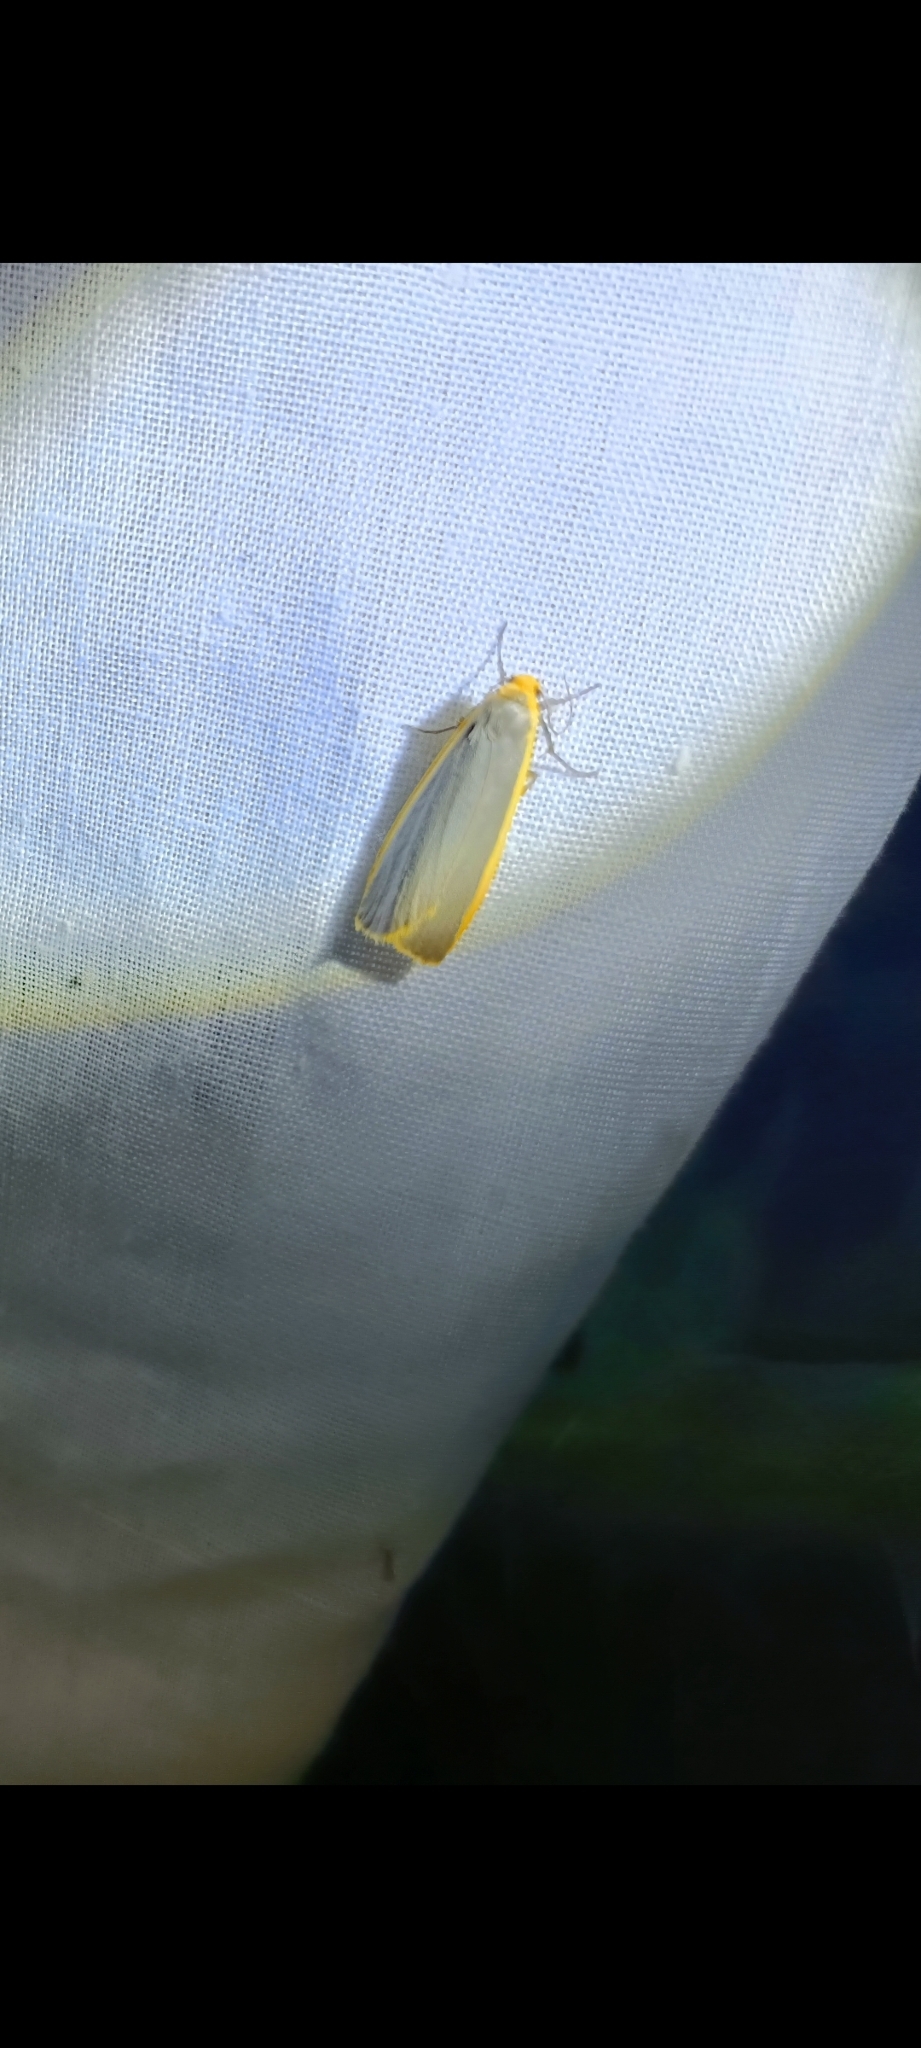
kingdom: Animalia
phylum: Arthropoda
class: Insecta
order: Lepidoptera
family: Erebidae
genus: Nyea
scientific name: Nyea lurideola
